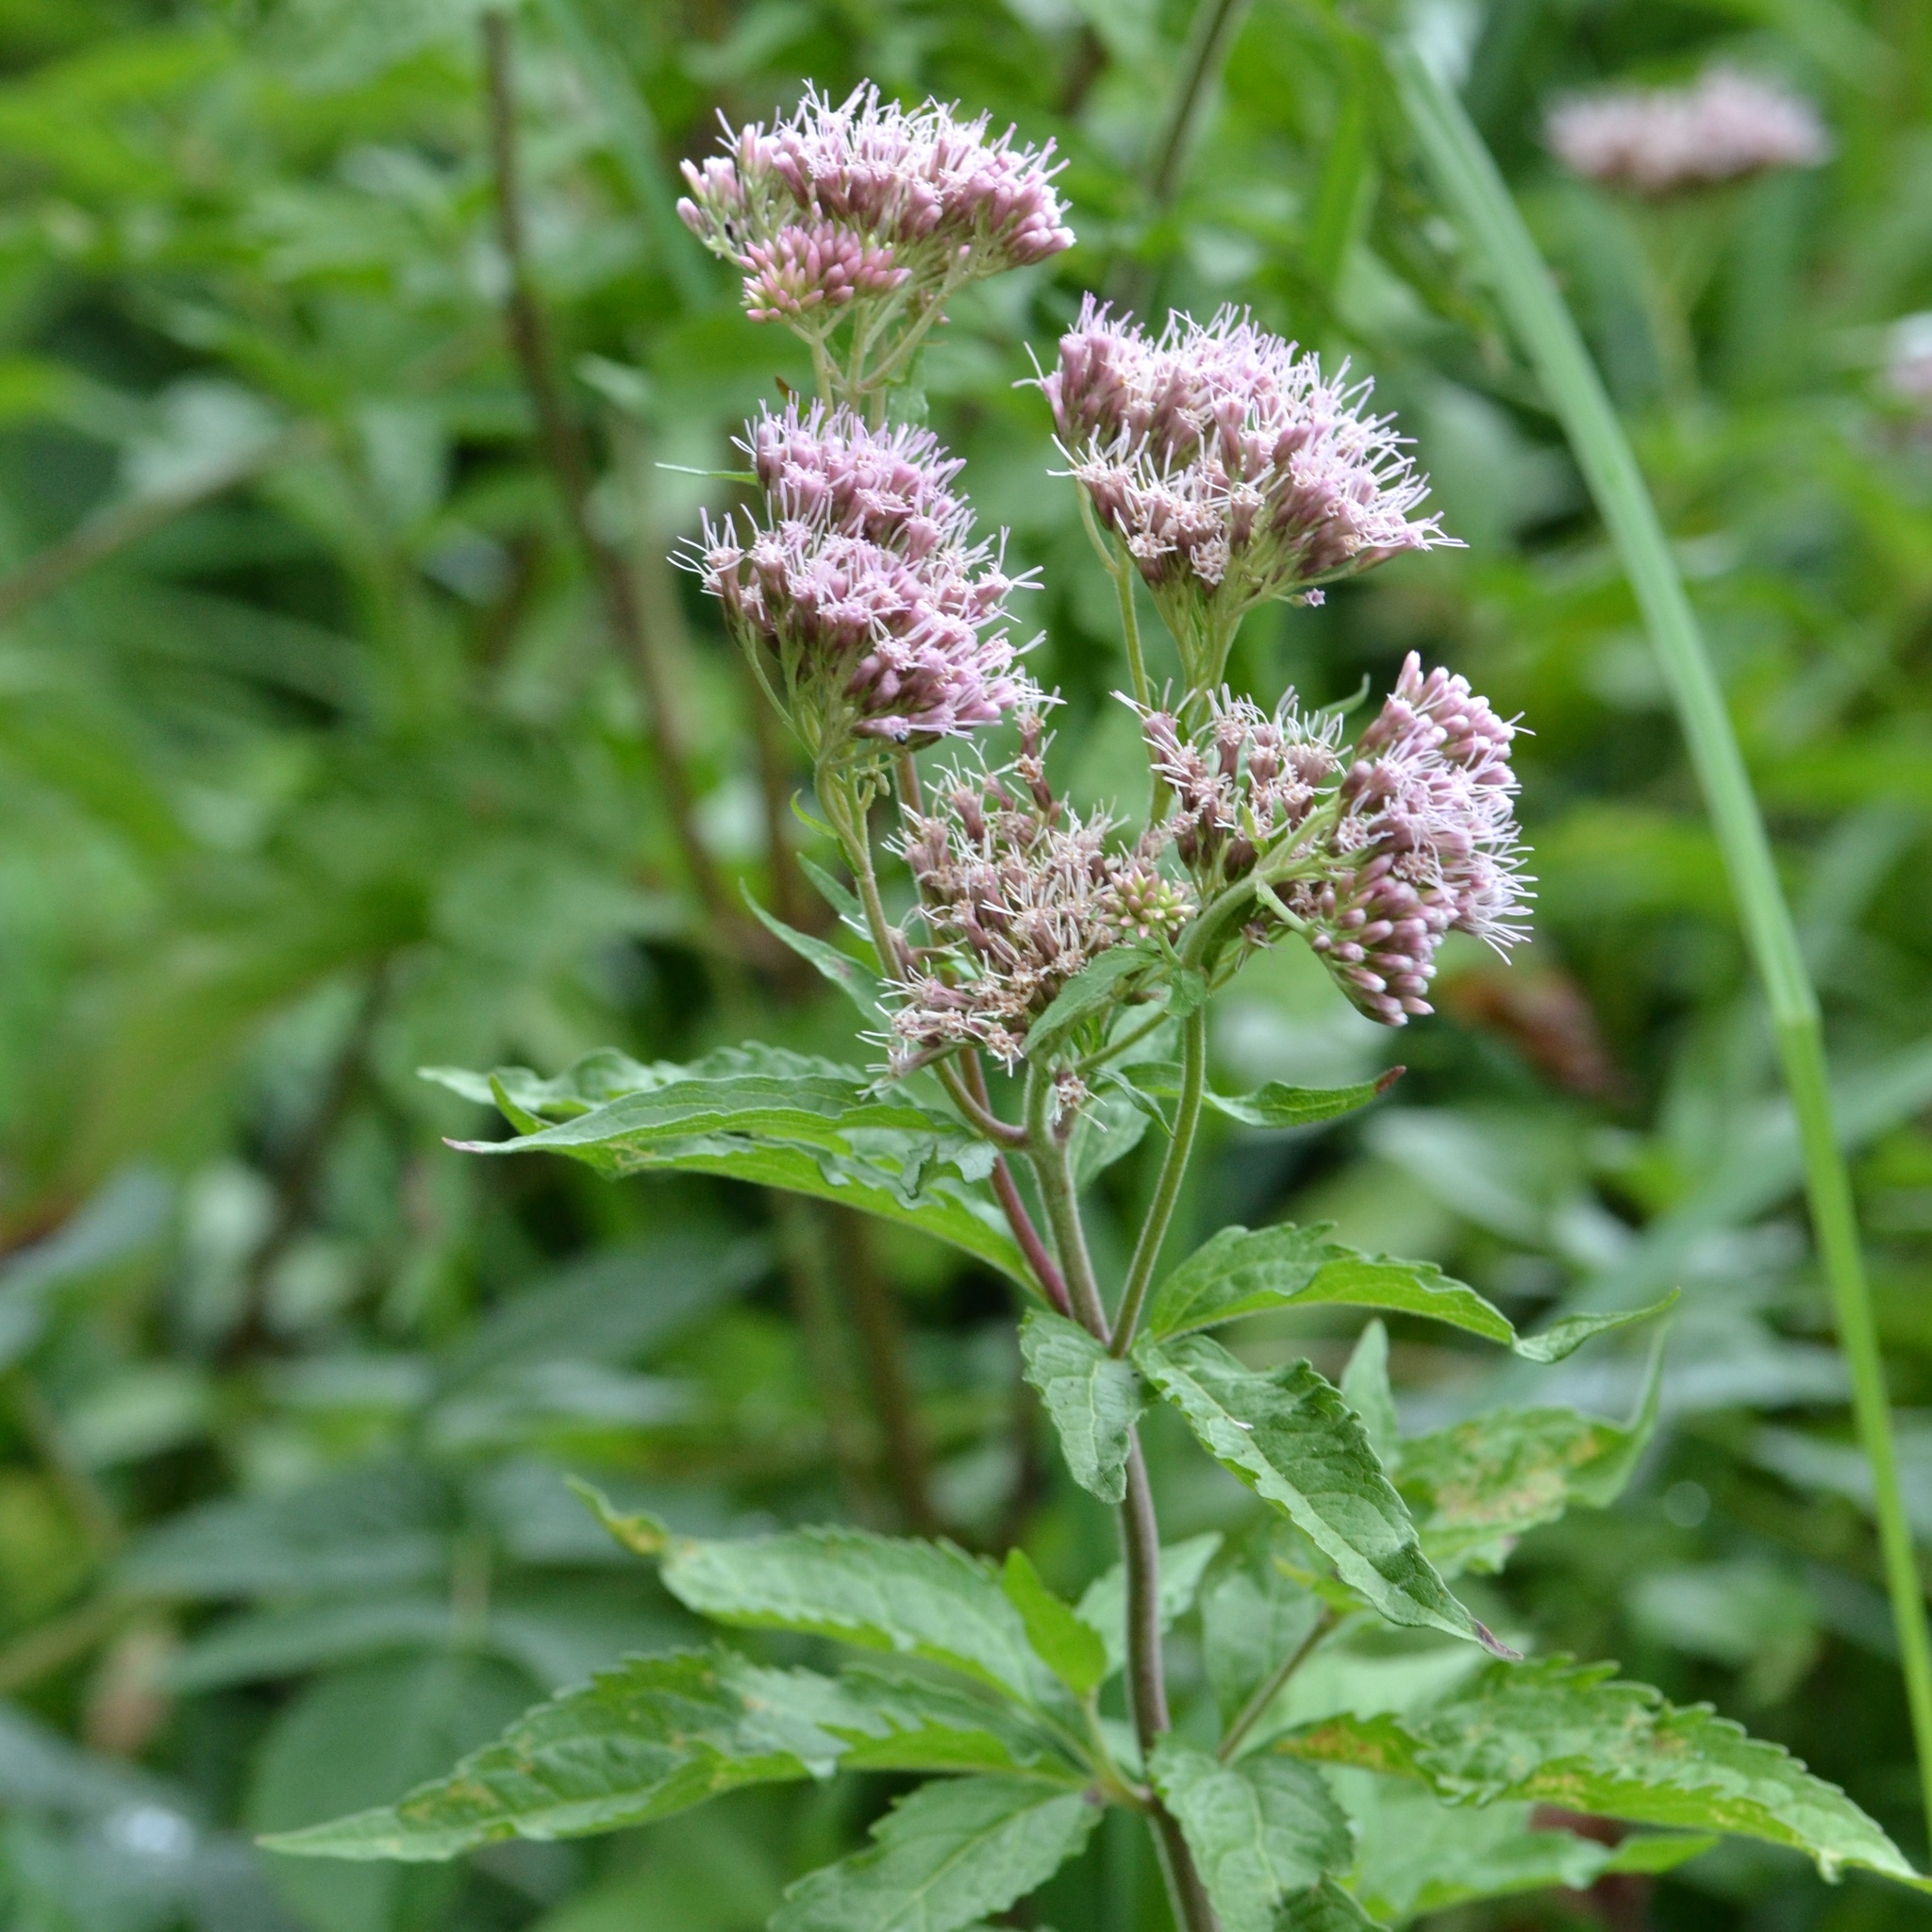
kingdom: Plantae
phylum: Tracheophyta
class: Magnoliopsida
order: Asterales
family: Asteraceae
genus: Eupatorium
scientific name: Eupatorium cannabinum
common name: Hemp-agrimony
